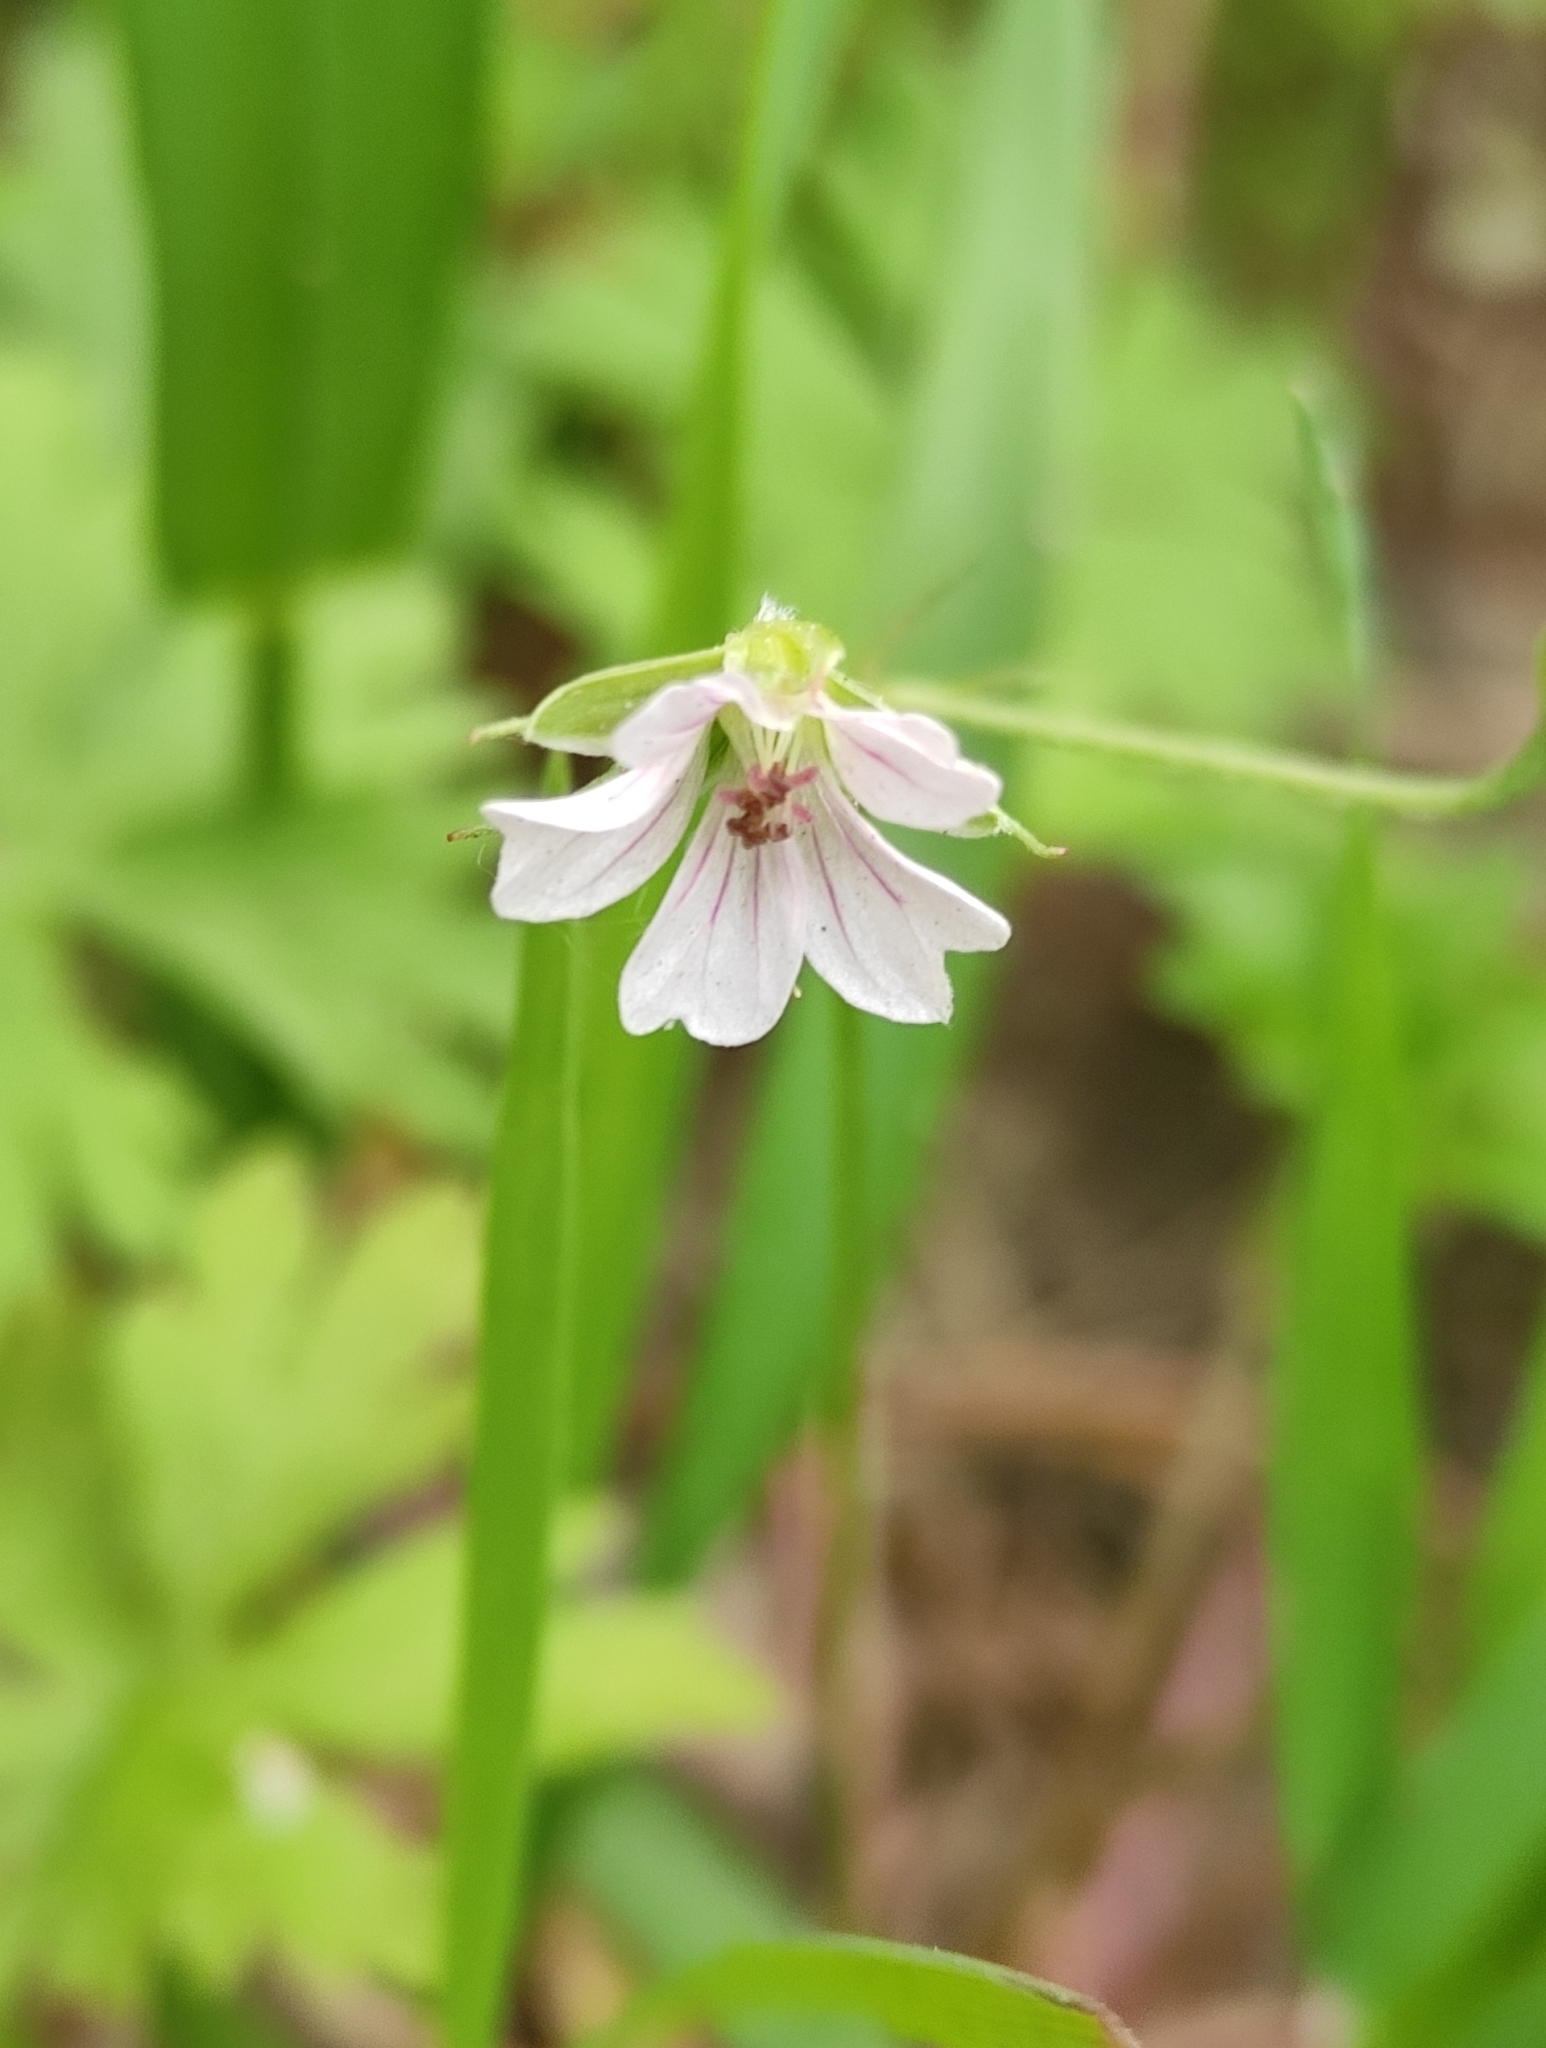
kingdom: Plantae
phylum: Tracheophyta
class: Magnoliopsida
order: Geraniales
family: Geraniaceae
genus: Geranium
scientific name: Geranium sibiricum
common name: Siberian crane's-bill
